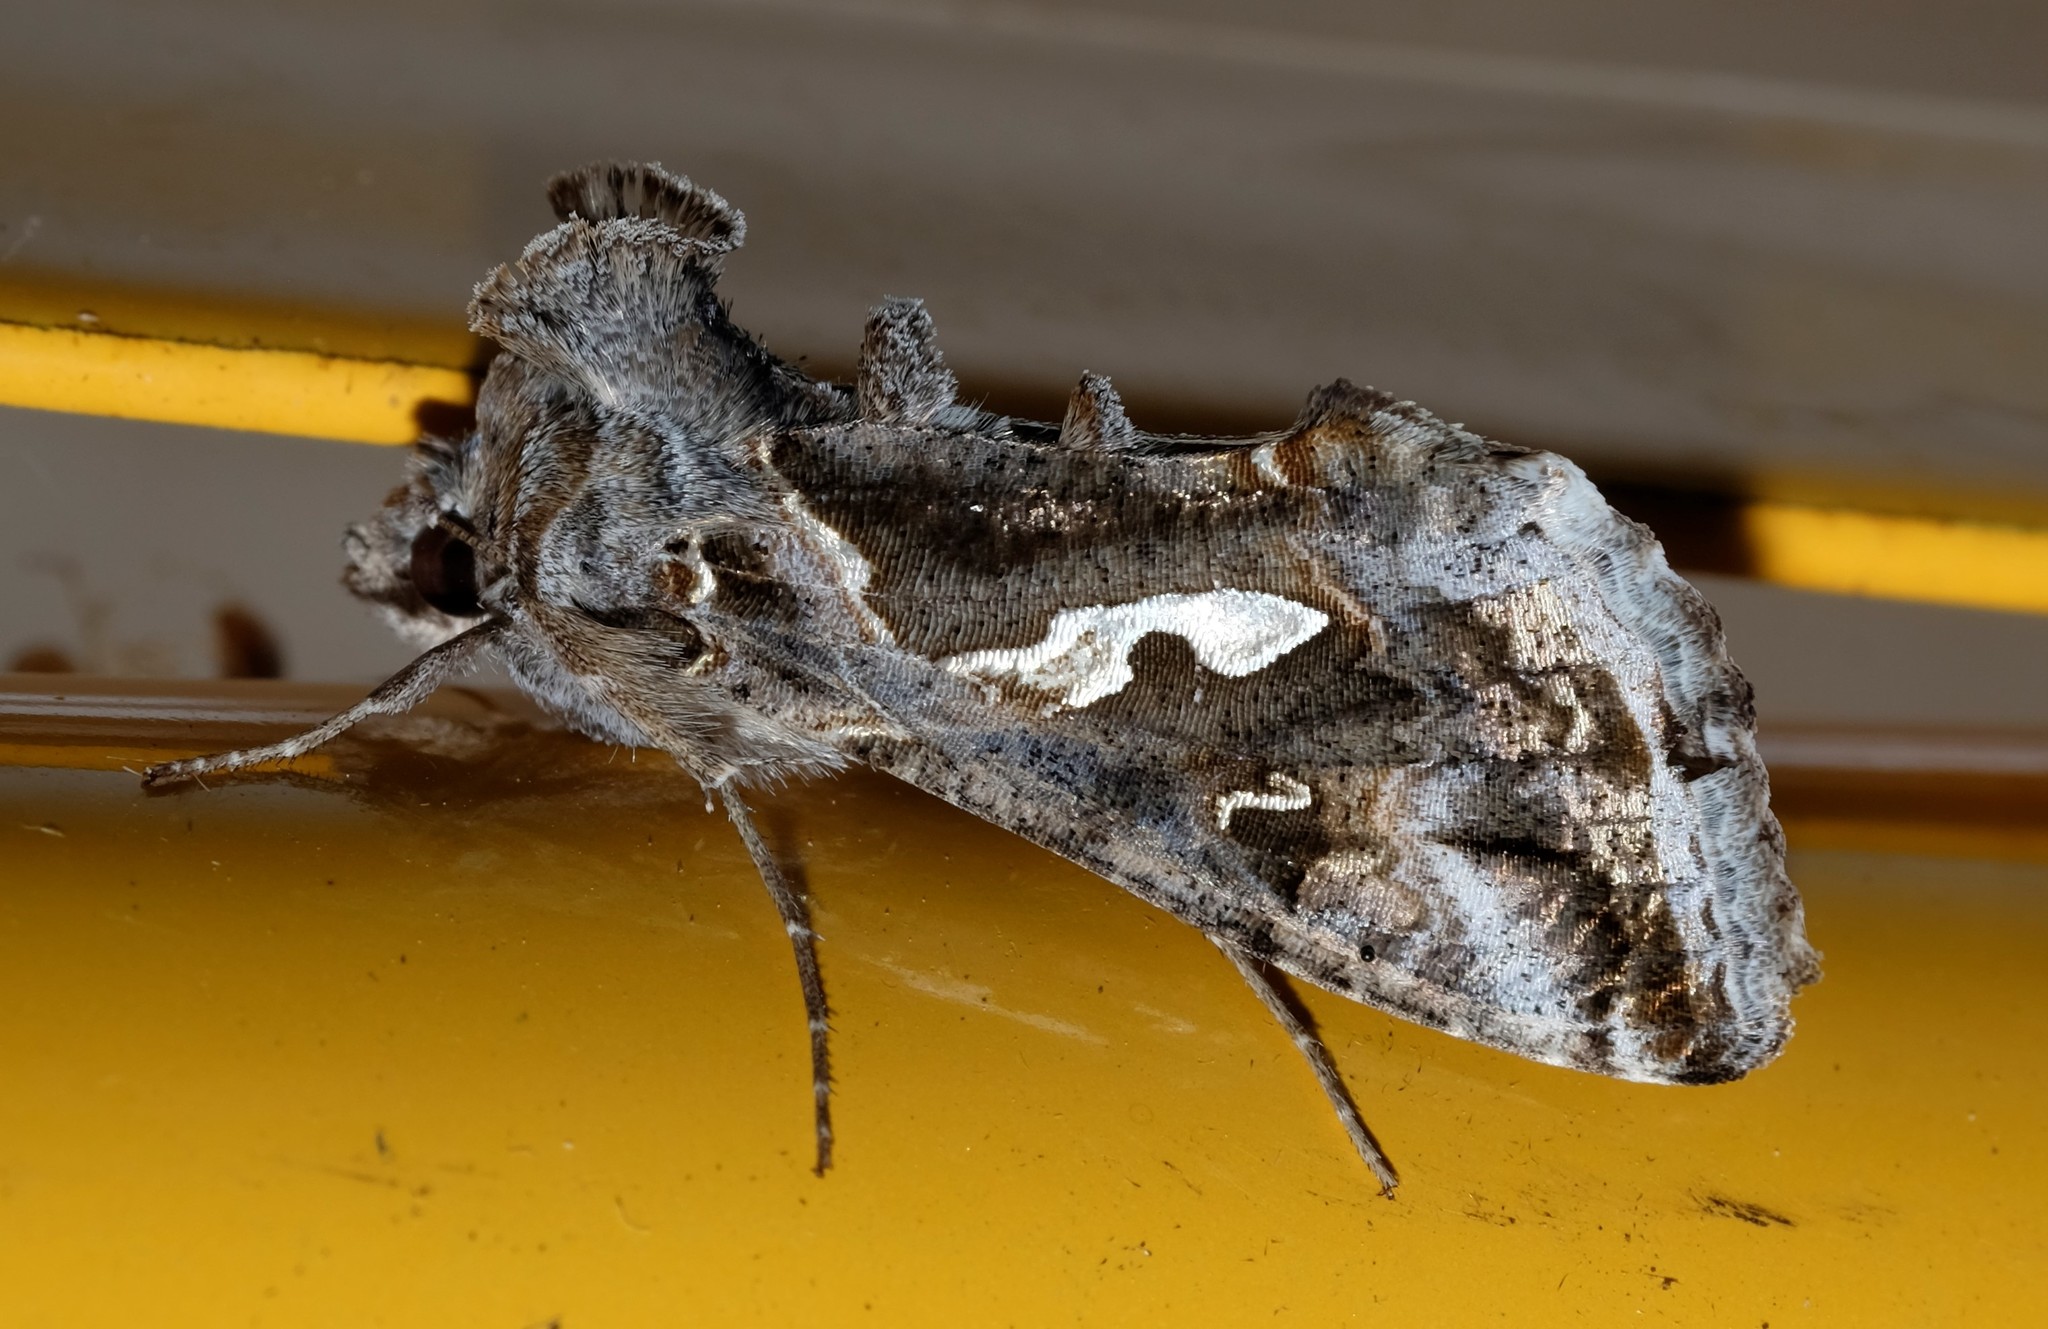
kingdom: Animalia
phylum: Arthropoda
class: Insecta
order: Lepidoptera
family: Noctuidae
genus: Chrysodeixis
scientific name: Chrysodeixis argentifera
